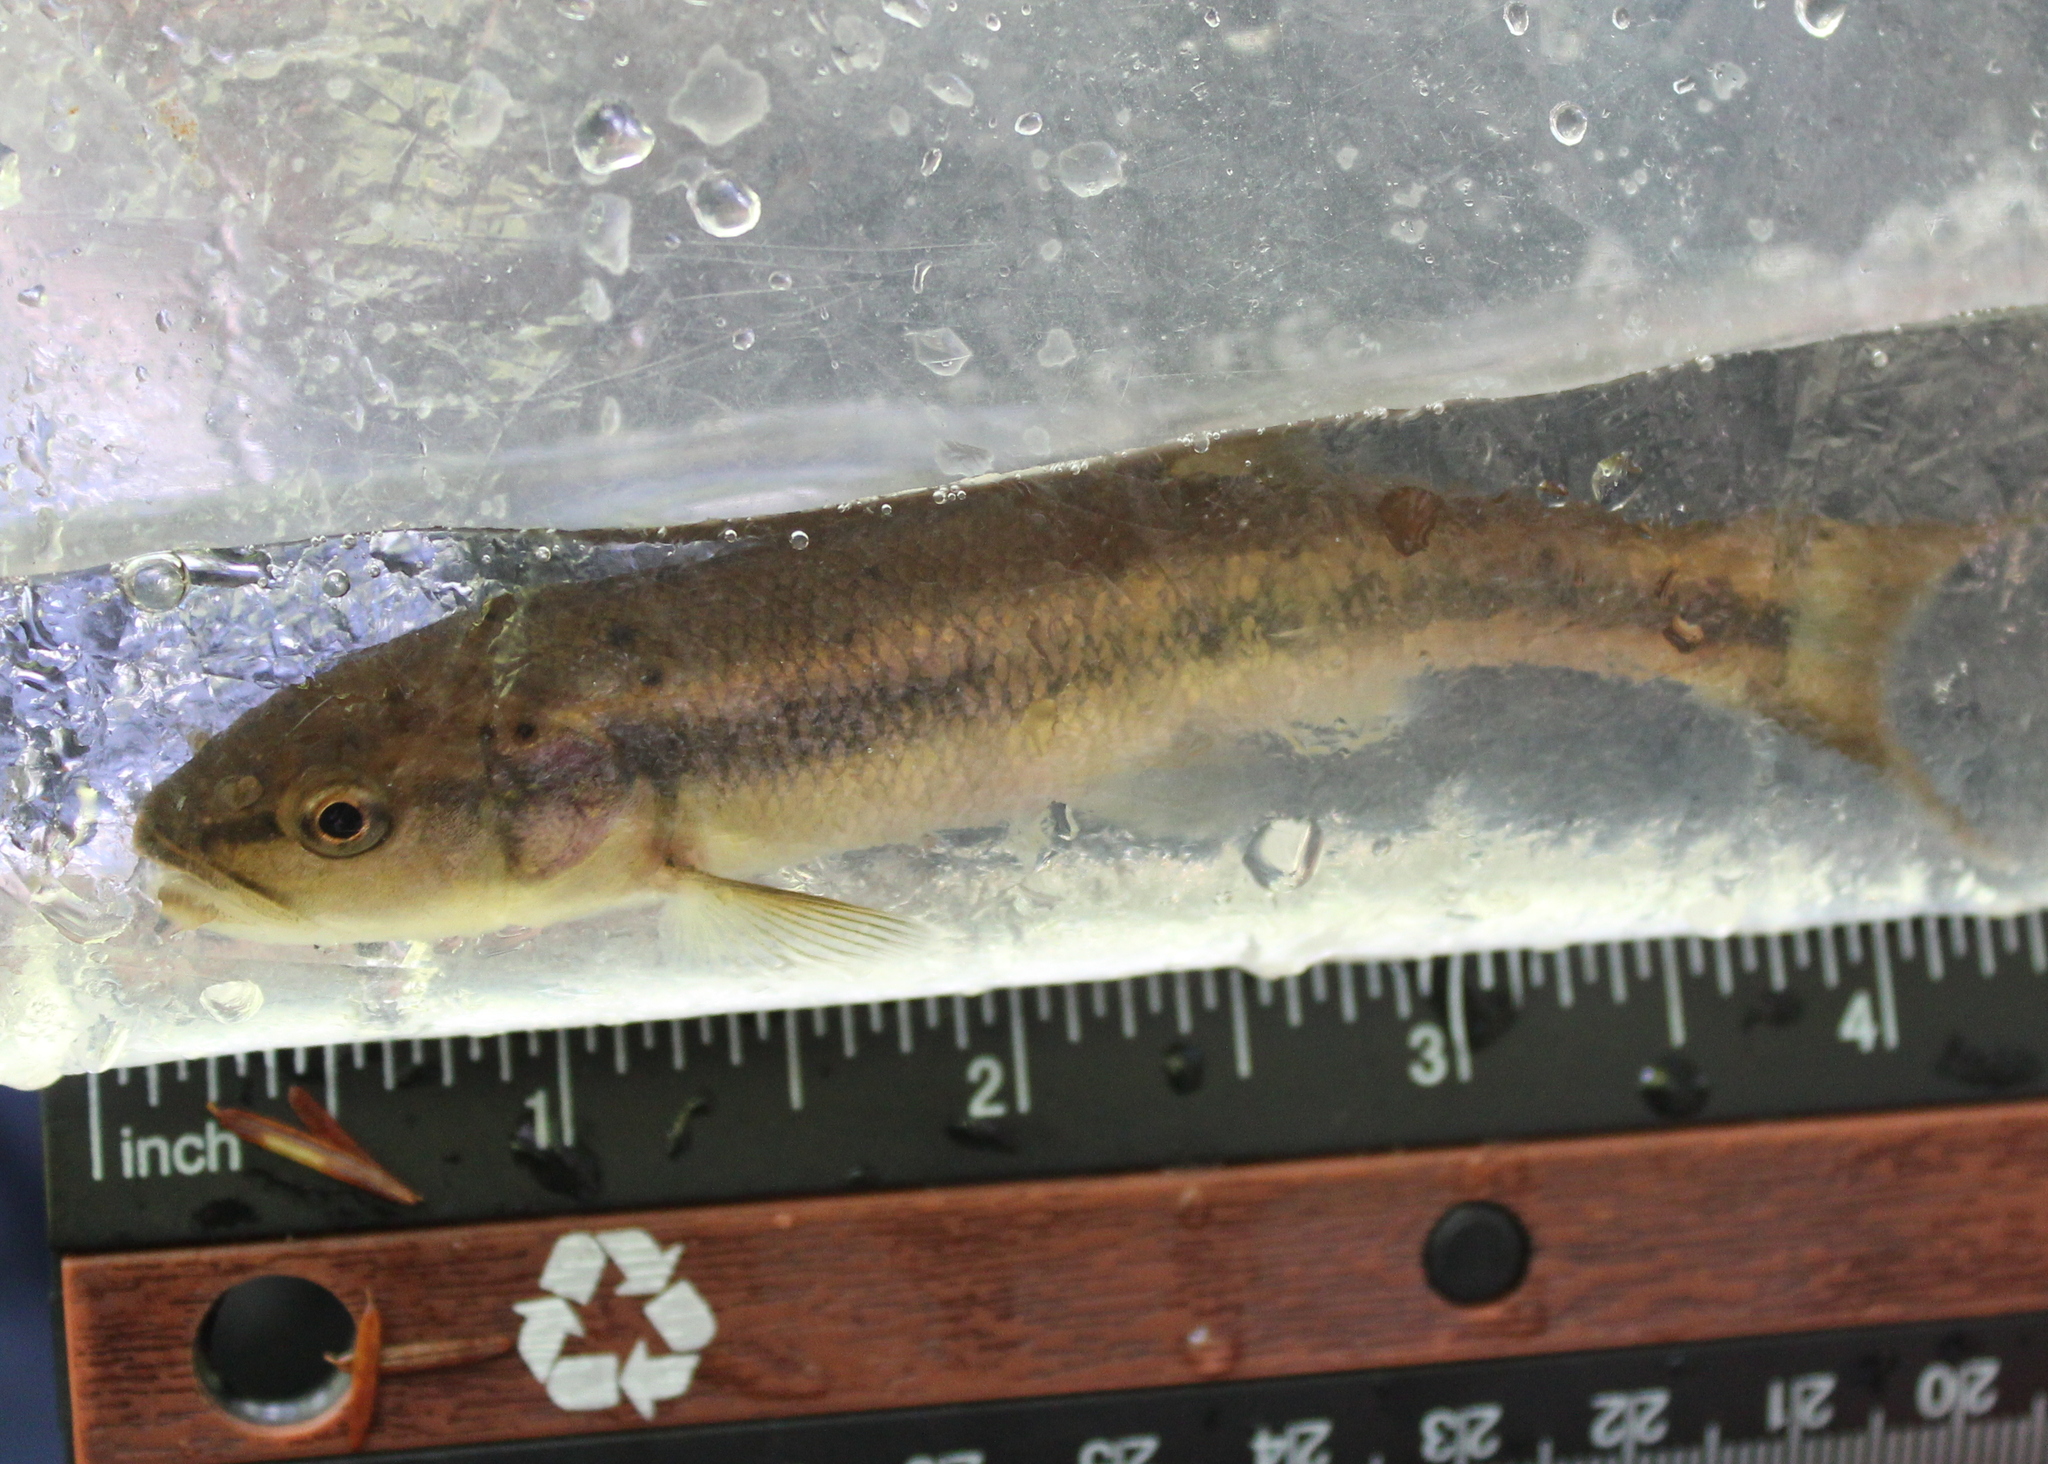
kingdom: Animalia
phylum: Chordata
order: Cypriniformes
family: Cyprinidae
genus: Semotilus
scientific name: Semotilus atromaculatus
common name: Creek chub
